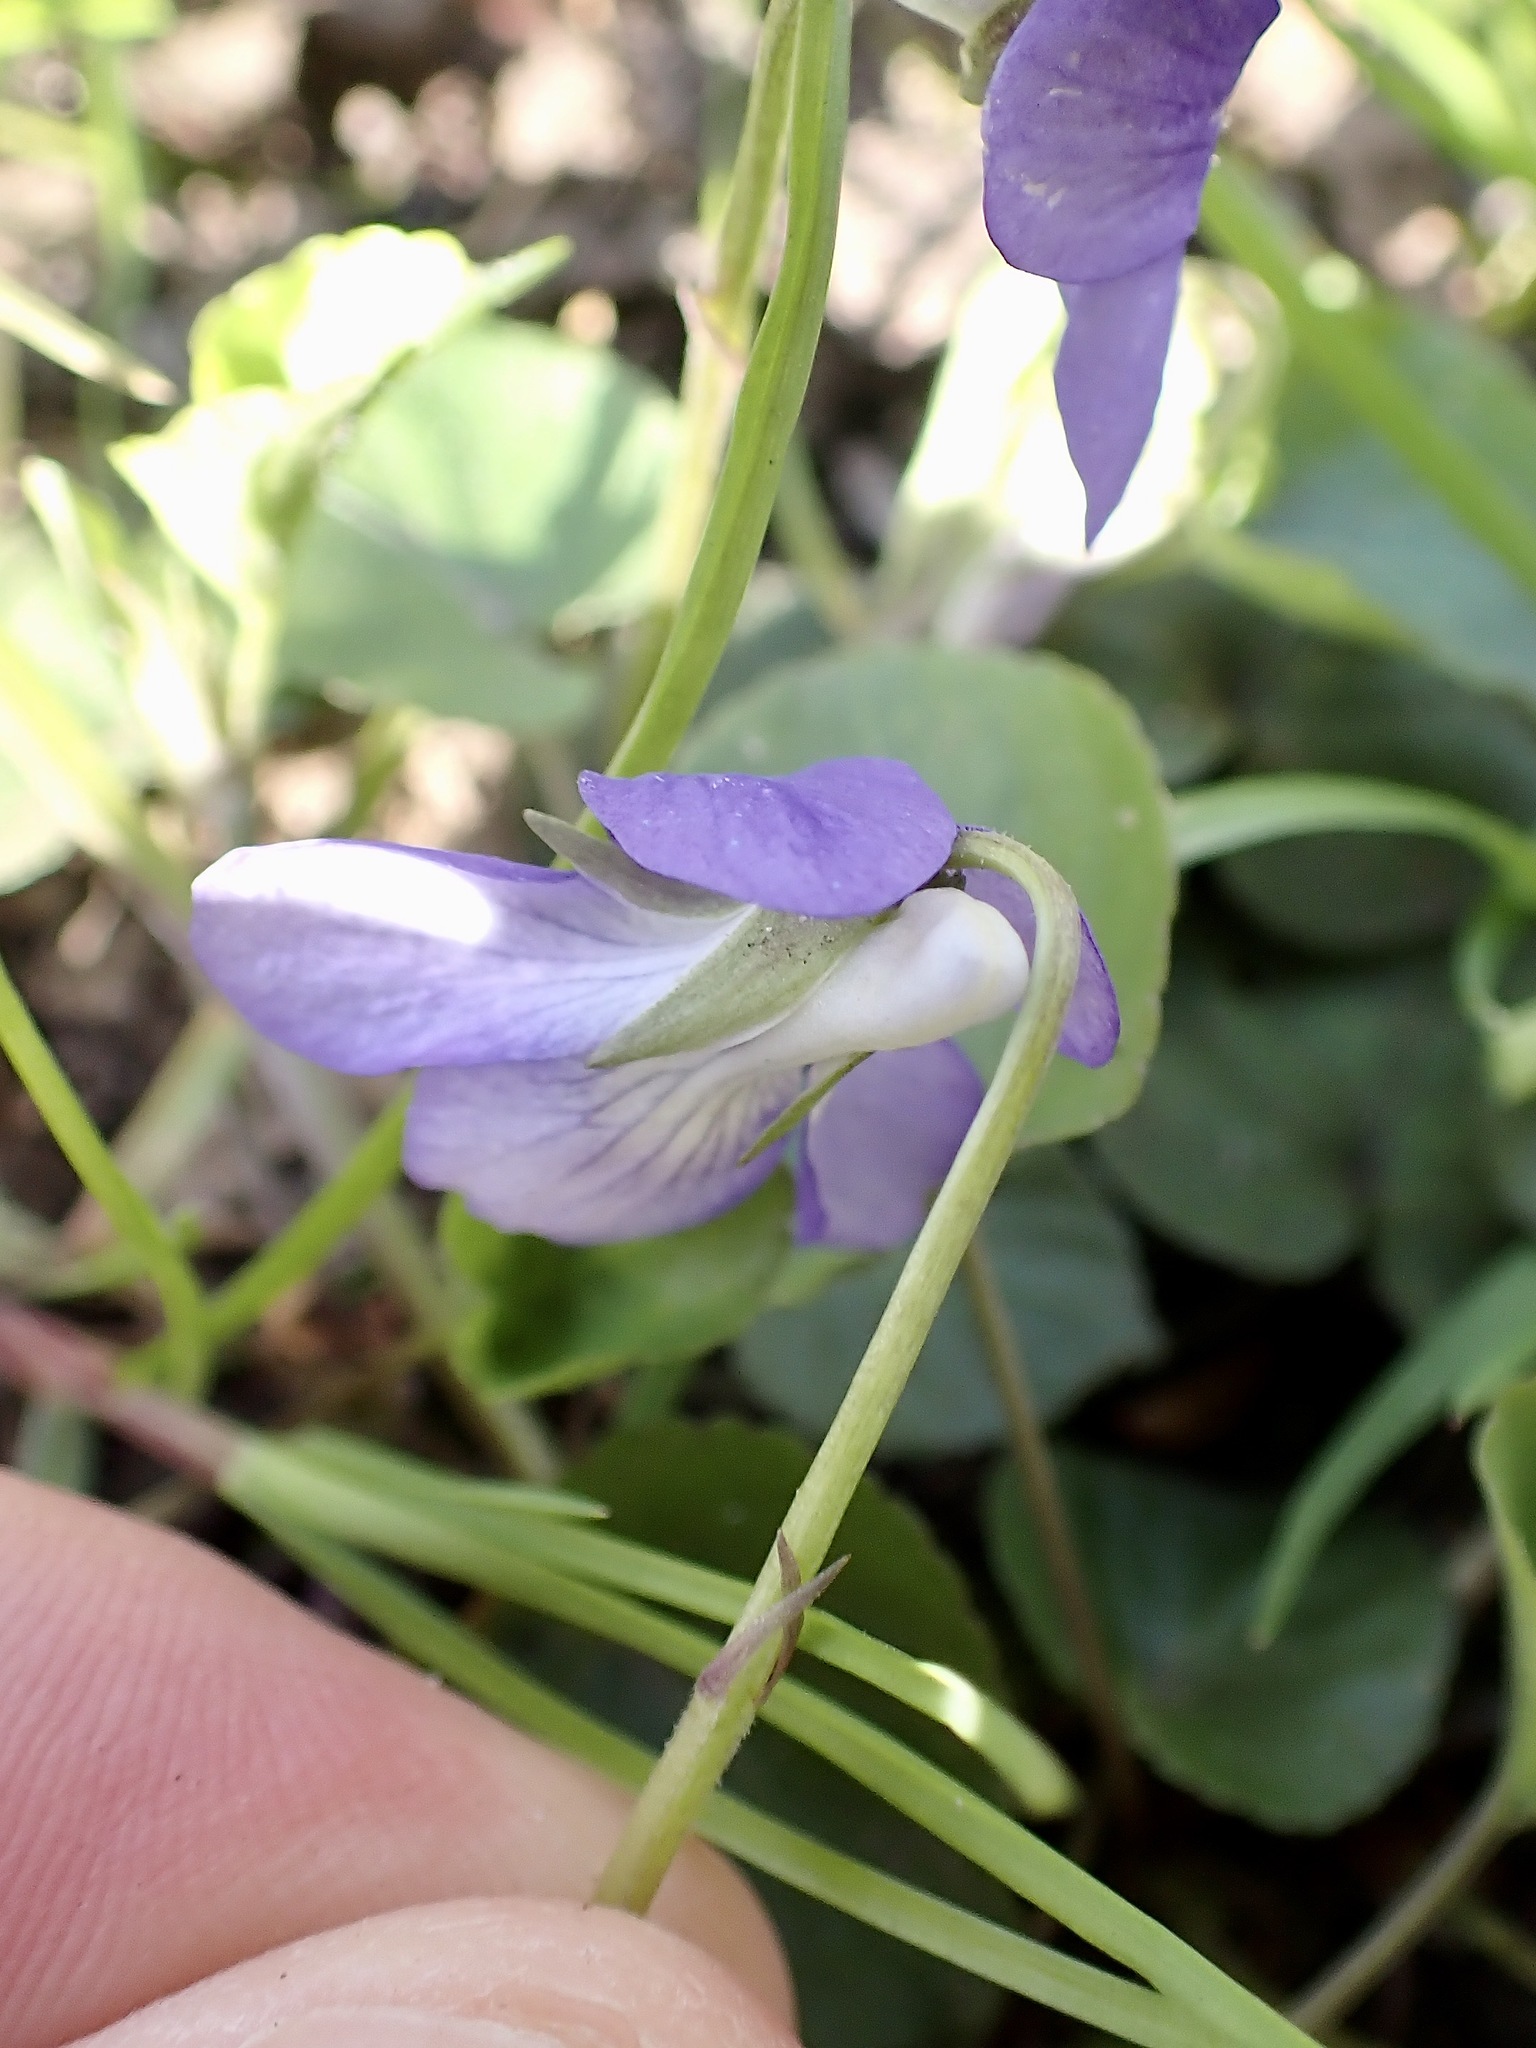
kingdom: Plantae
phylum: Tracheophyta
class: Magnoliopsida
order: Malpighiales
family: Violaceae
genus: Viola
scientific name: Viola riviniana
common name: Common dog-violet
